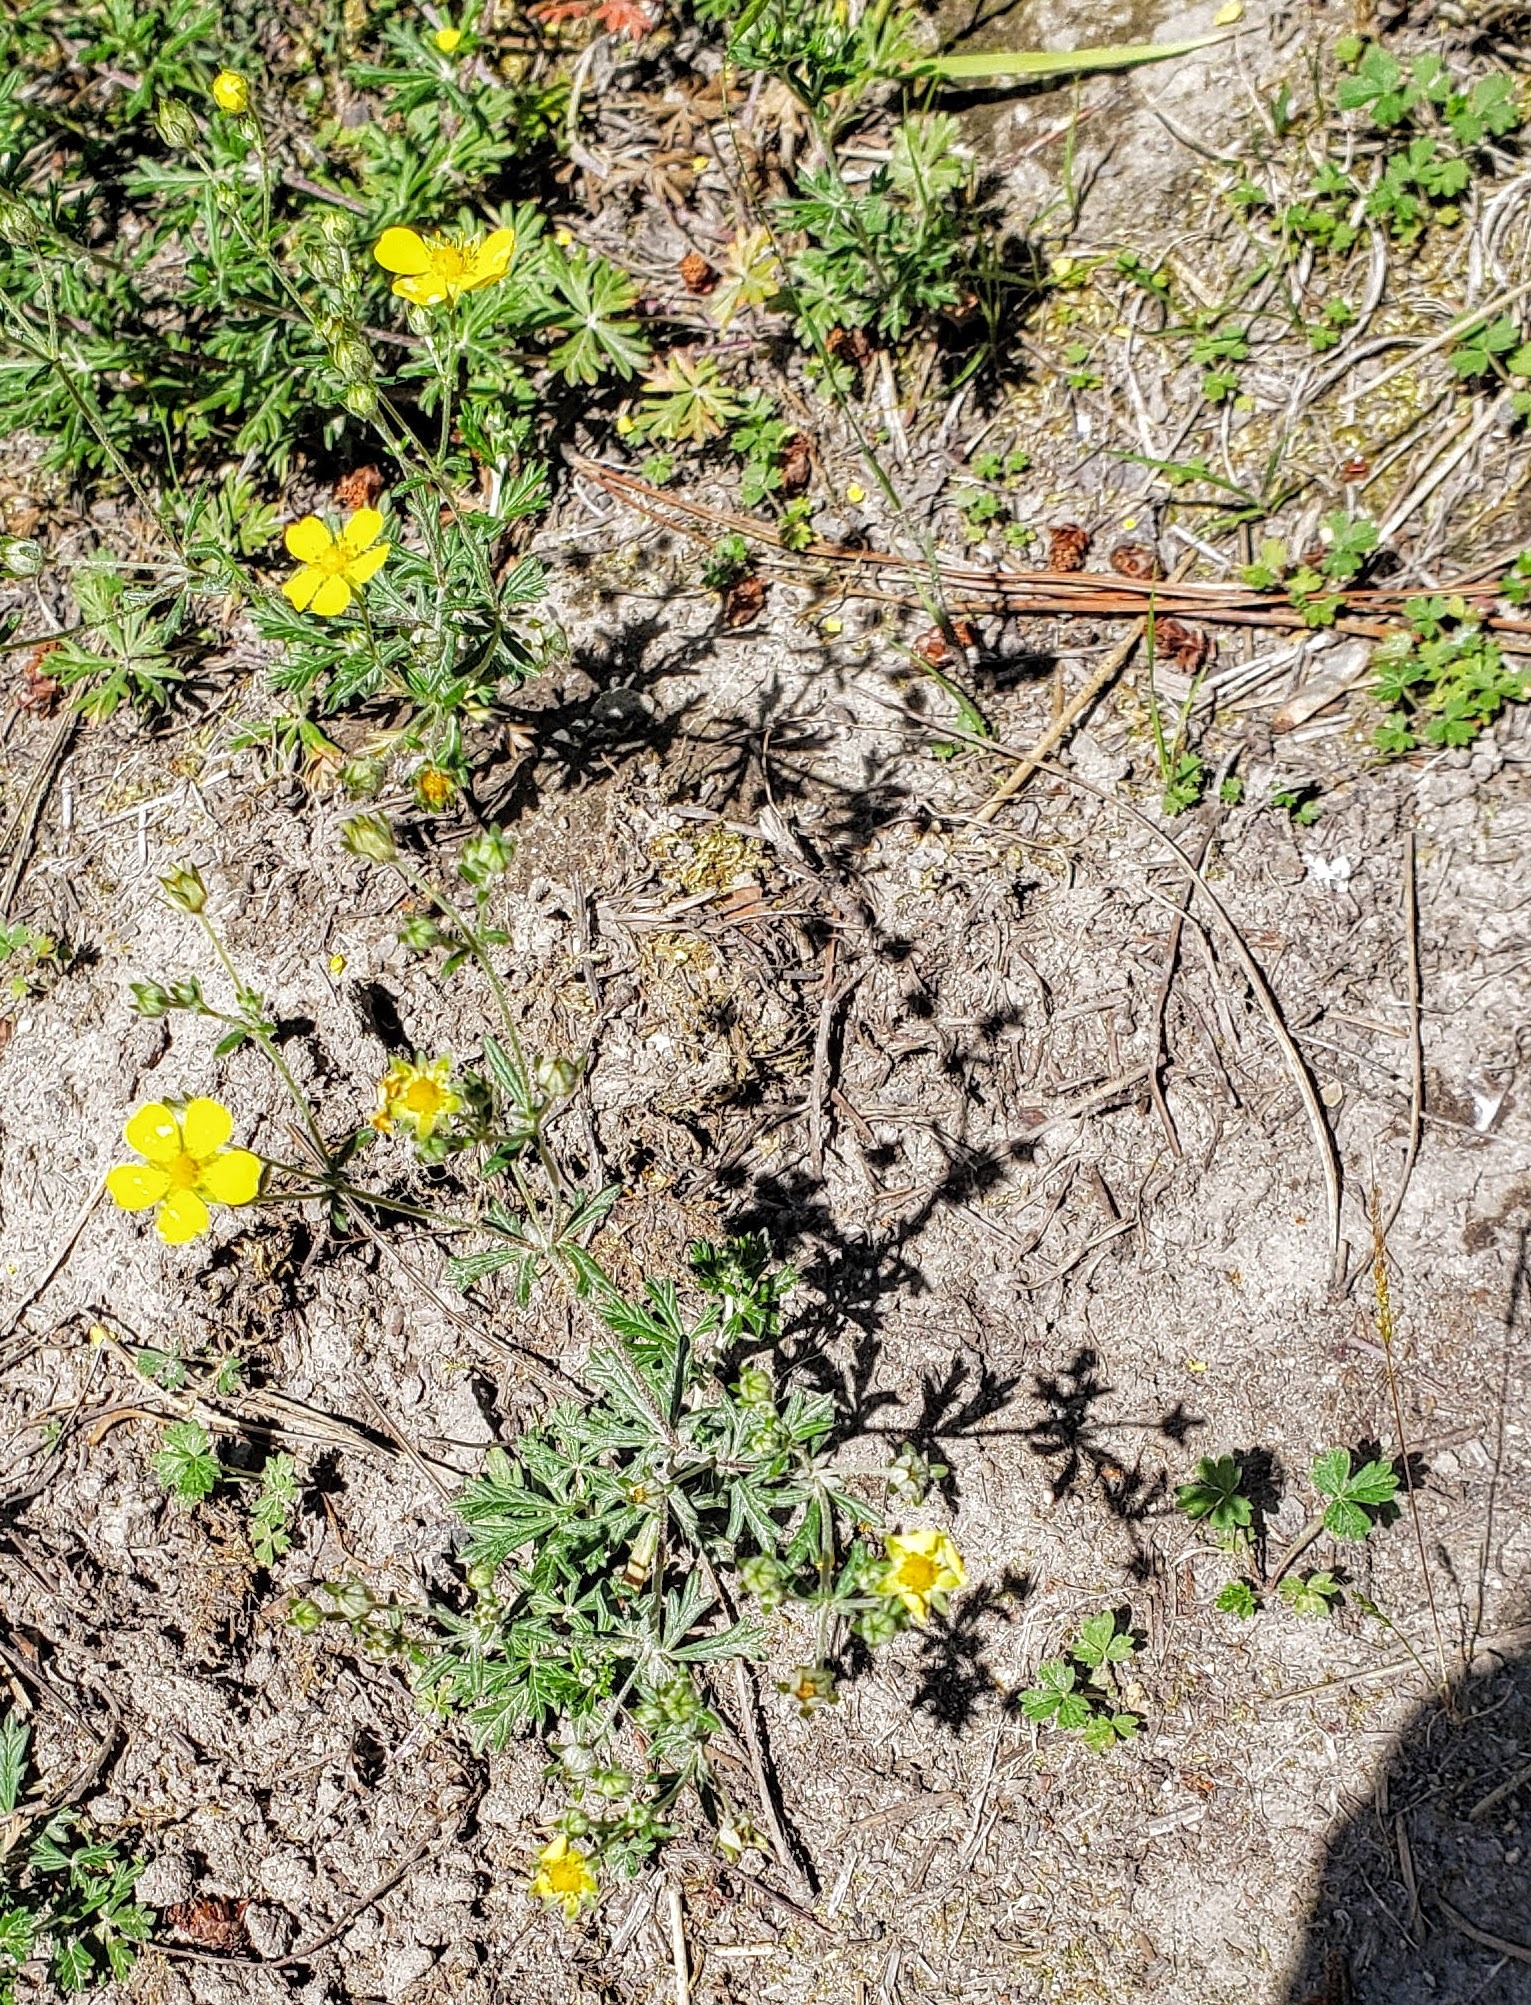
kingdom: Plantae
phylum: Tracheophyta
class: Magnoliopsida
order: Rosales
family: Rosaceae
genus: Potentilla
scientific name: Potentilla argentea
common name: Hoary cinquefoil
